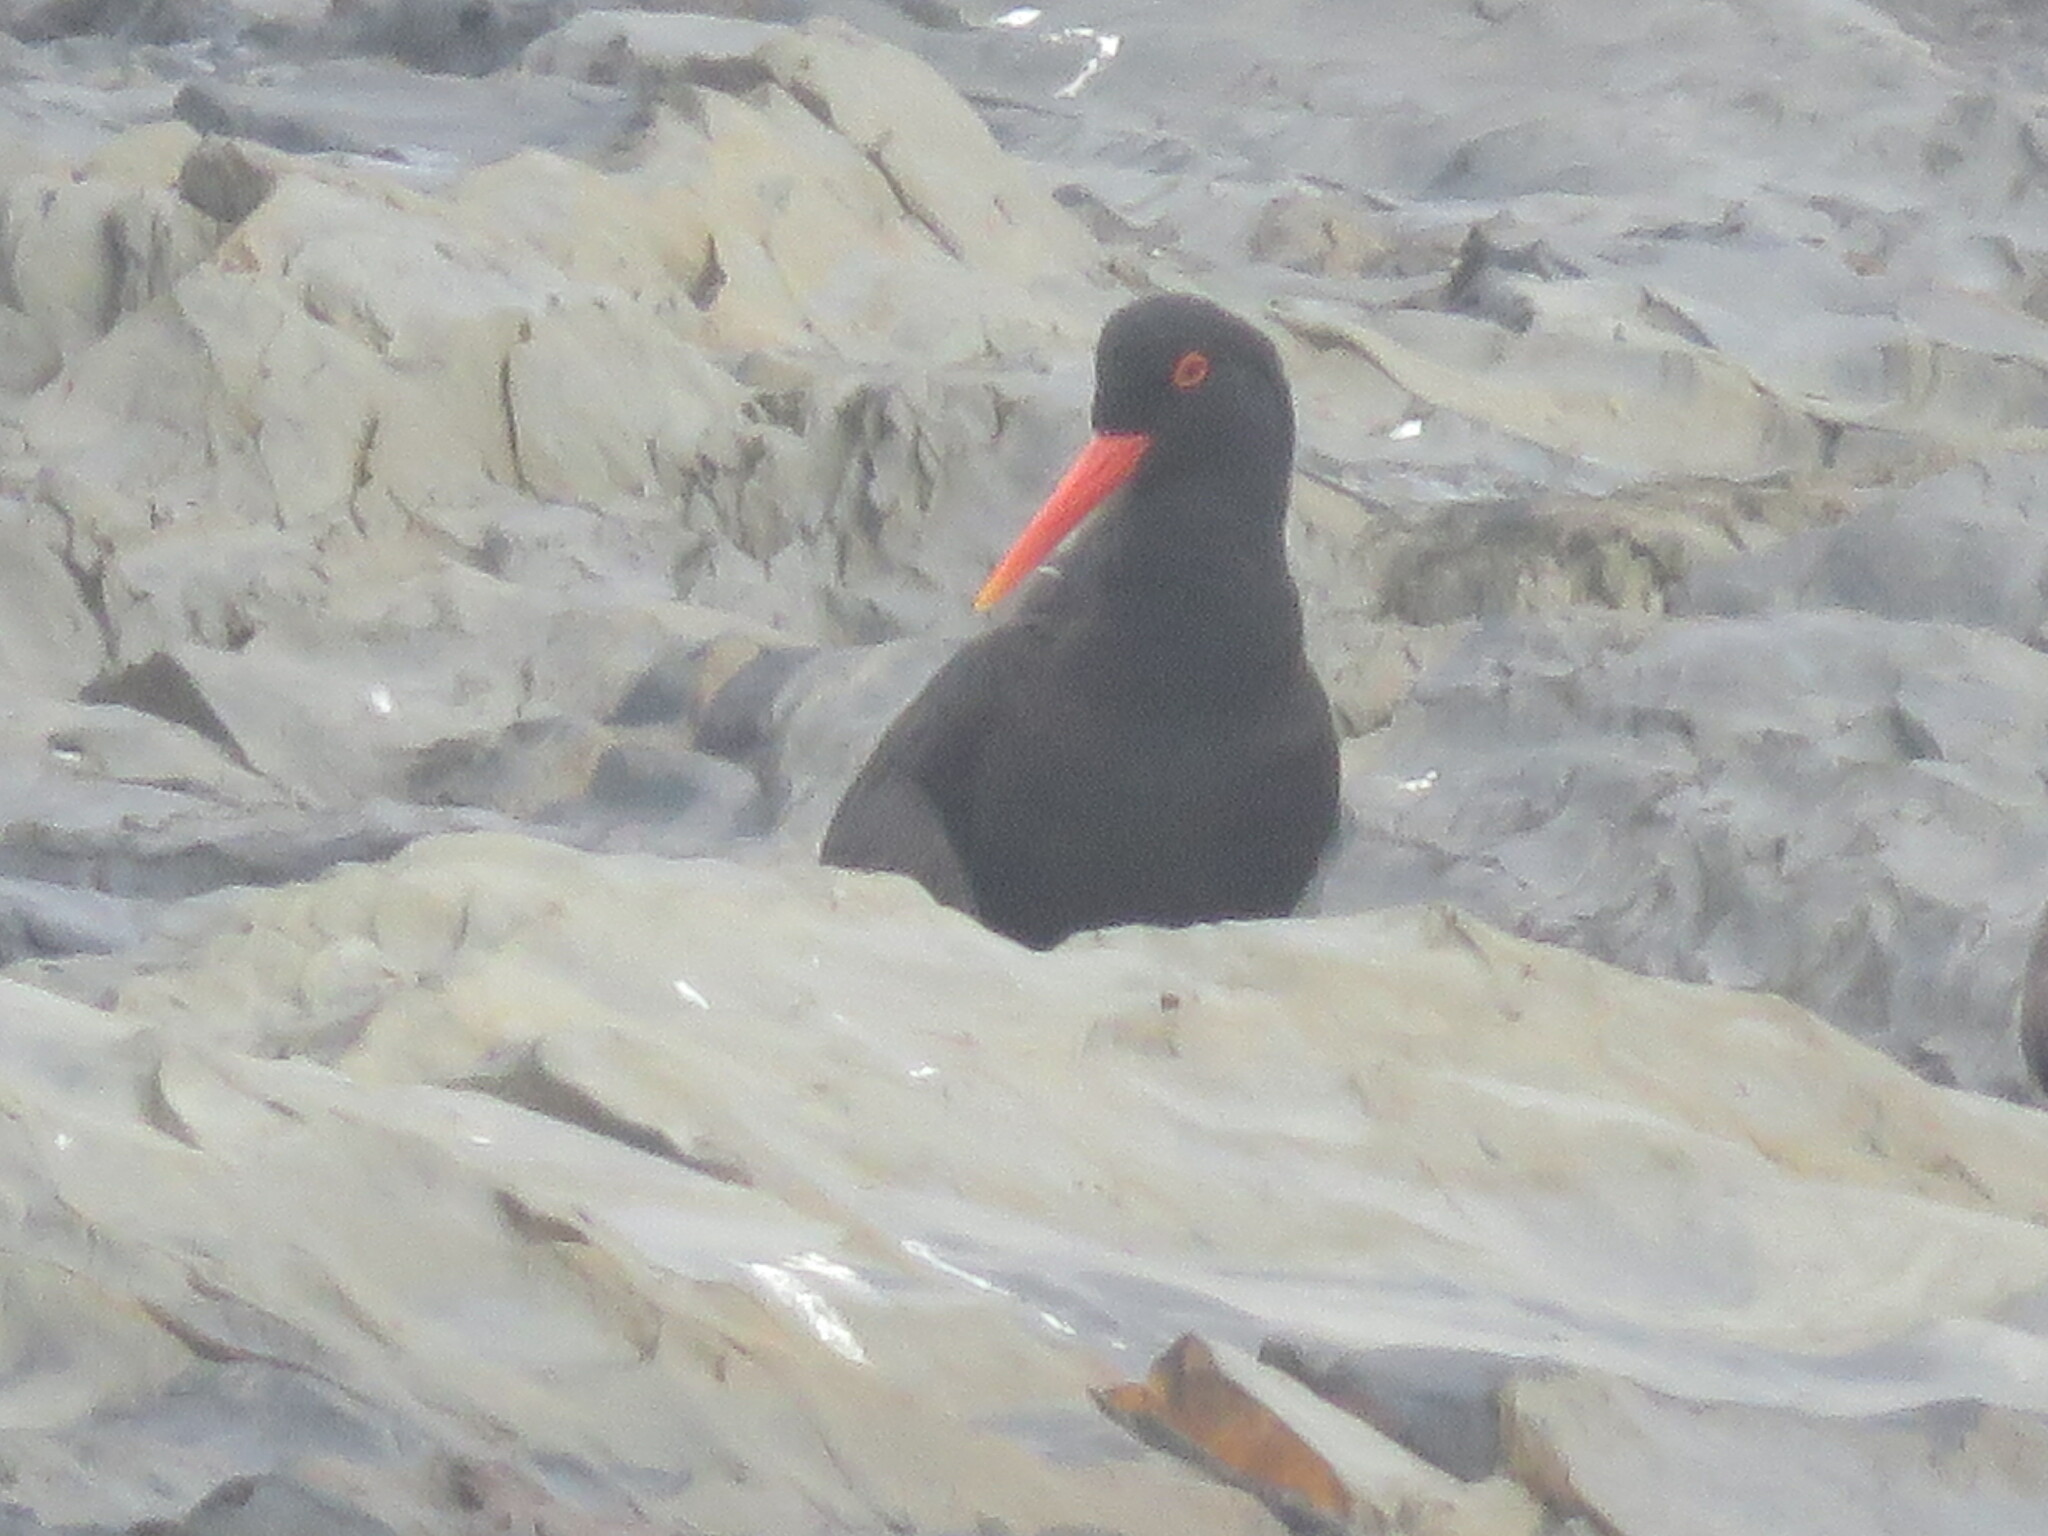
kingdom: Animalia
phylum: Chordata
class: Aves
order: Charadriiformes
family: Haematopodidae
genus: Haematopus
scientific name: Haematopus moquini
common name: African oystercatcher
